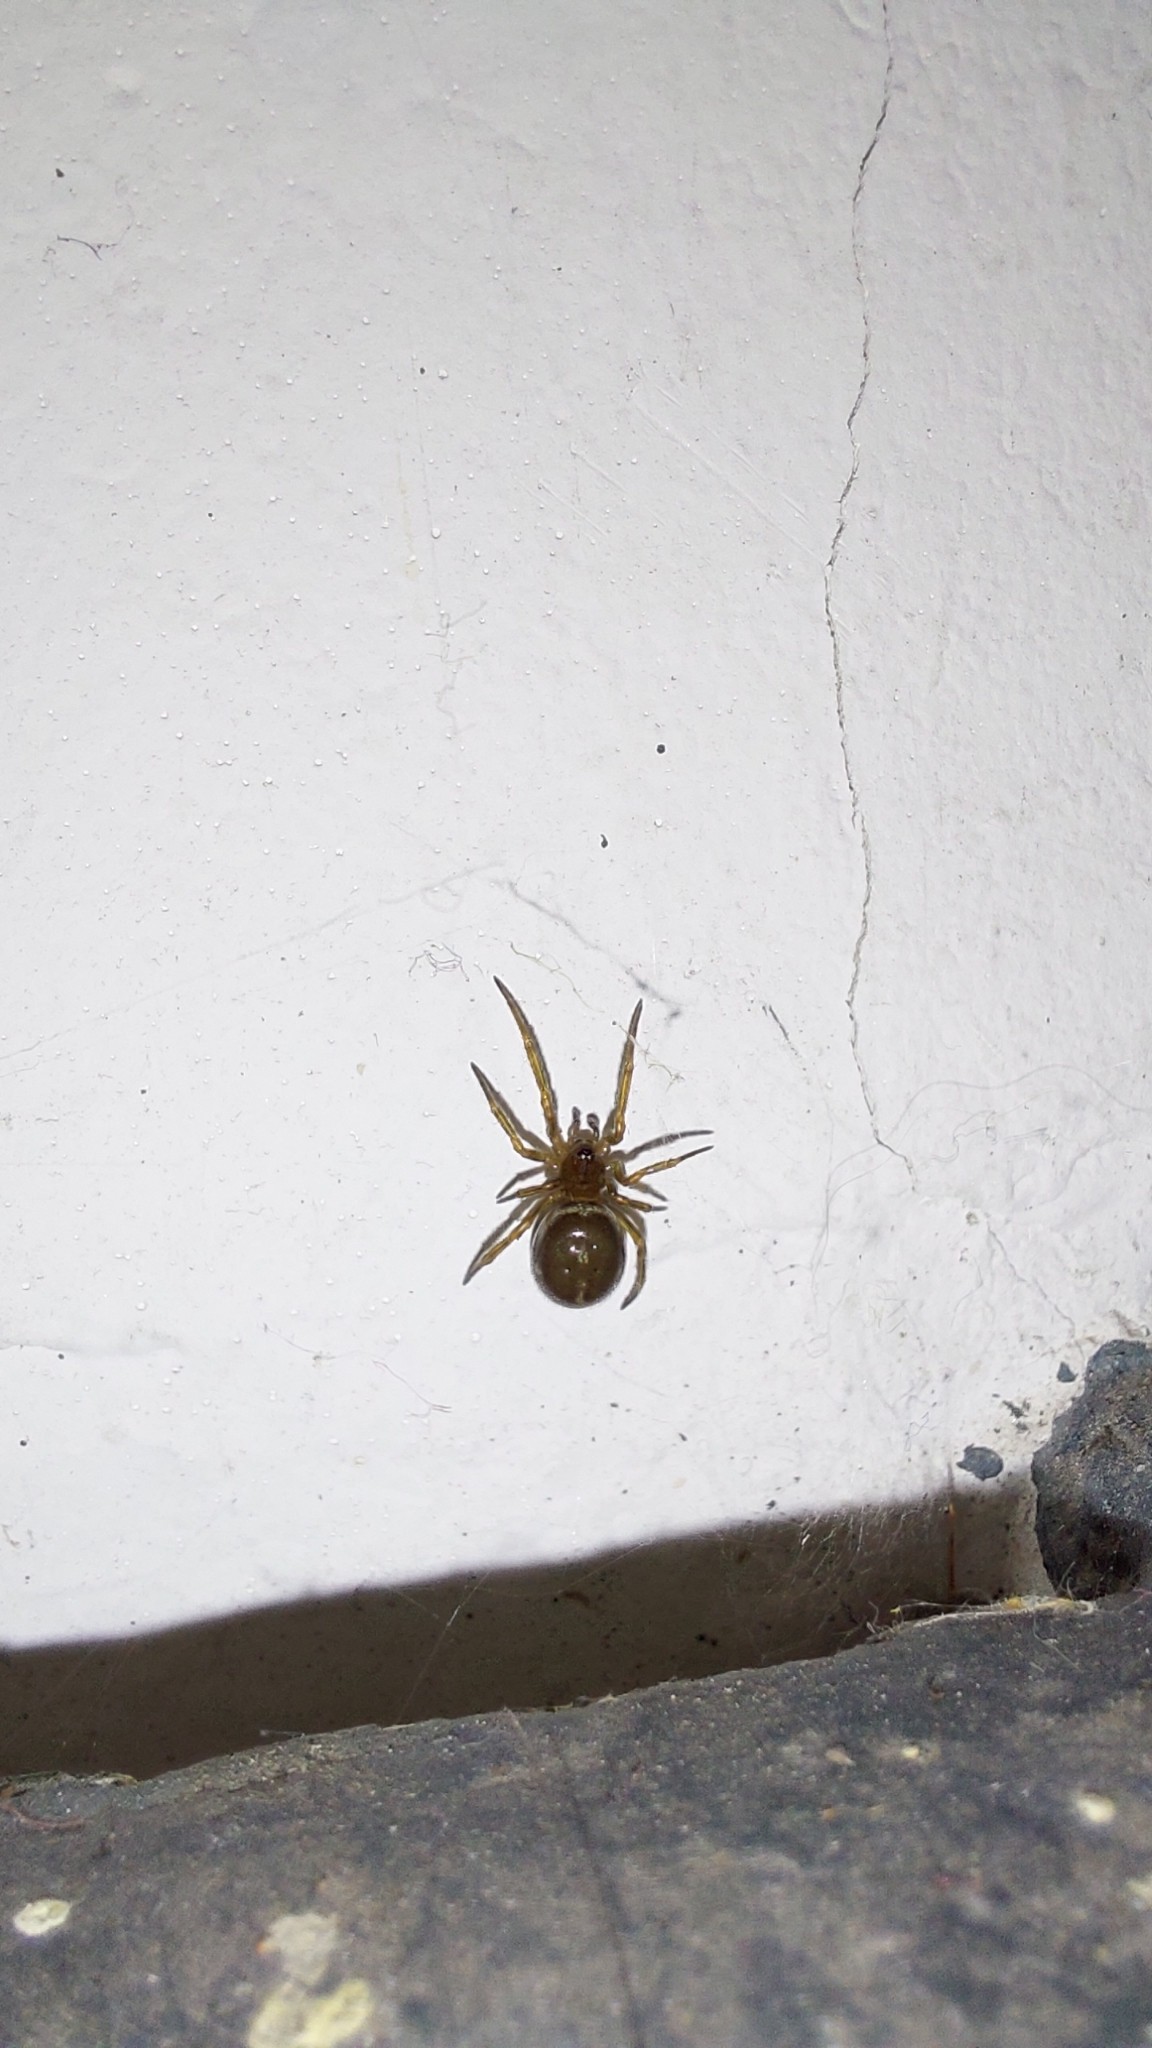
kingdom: Animalia
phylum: Arthropoda
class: Arachnida
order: Araneae
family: Theridiidae
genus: Steatoda
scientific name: Steatoda bipunctata
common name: False widow
